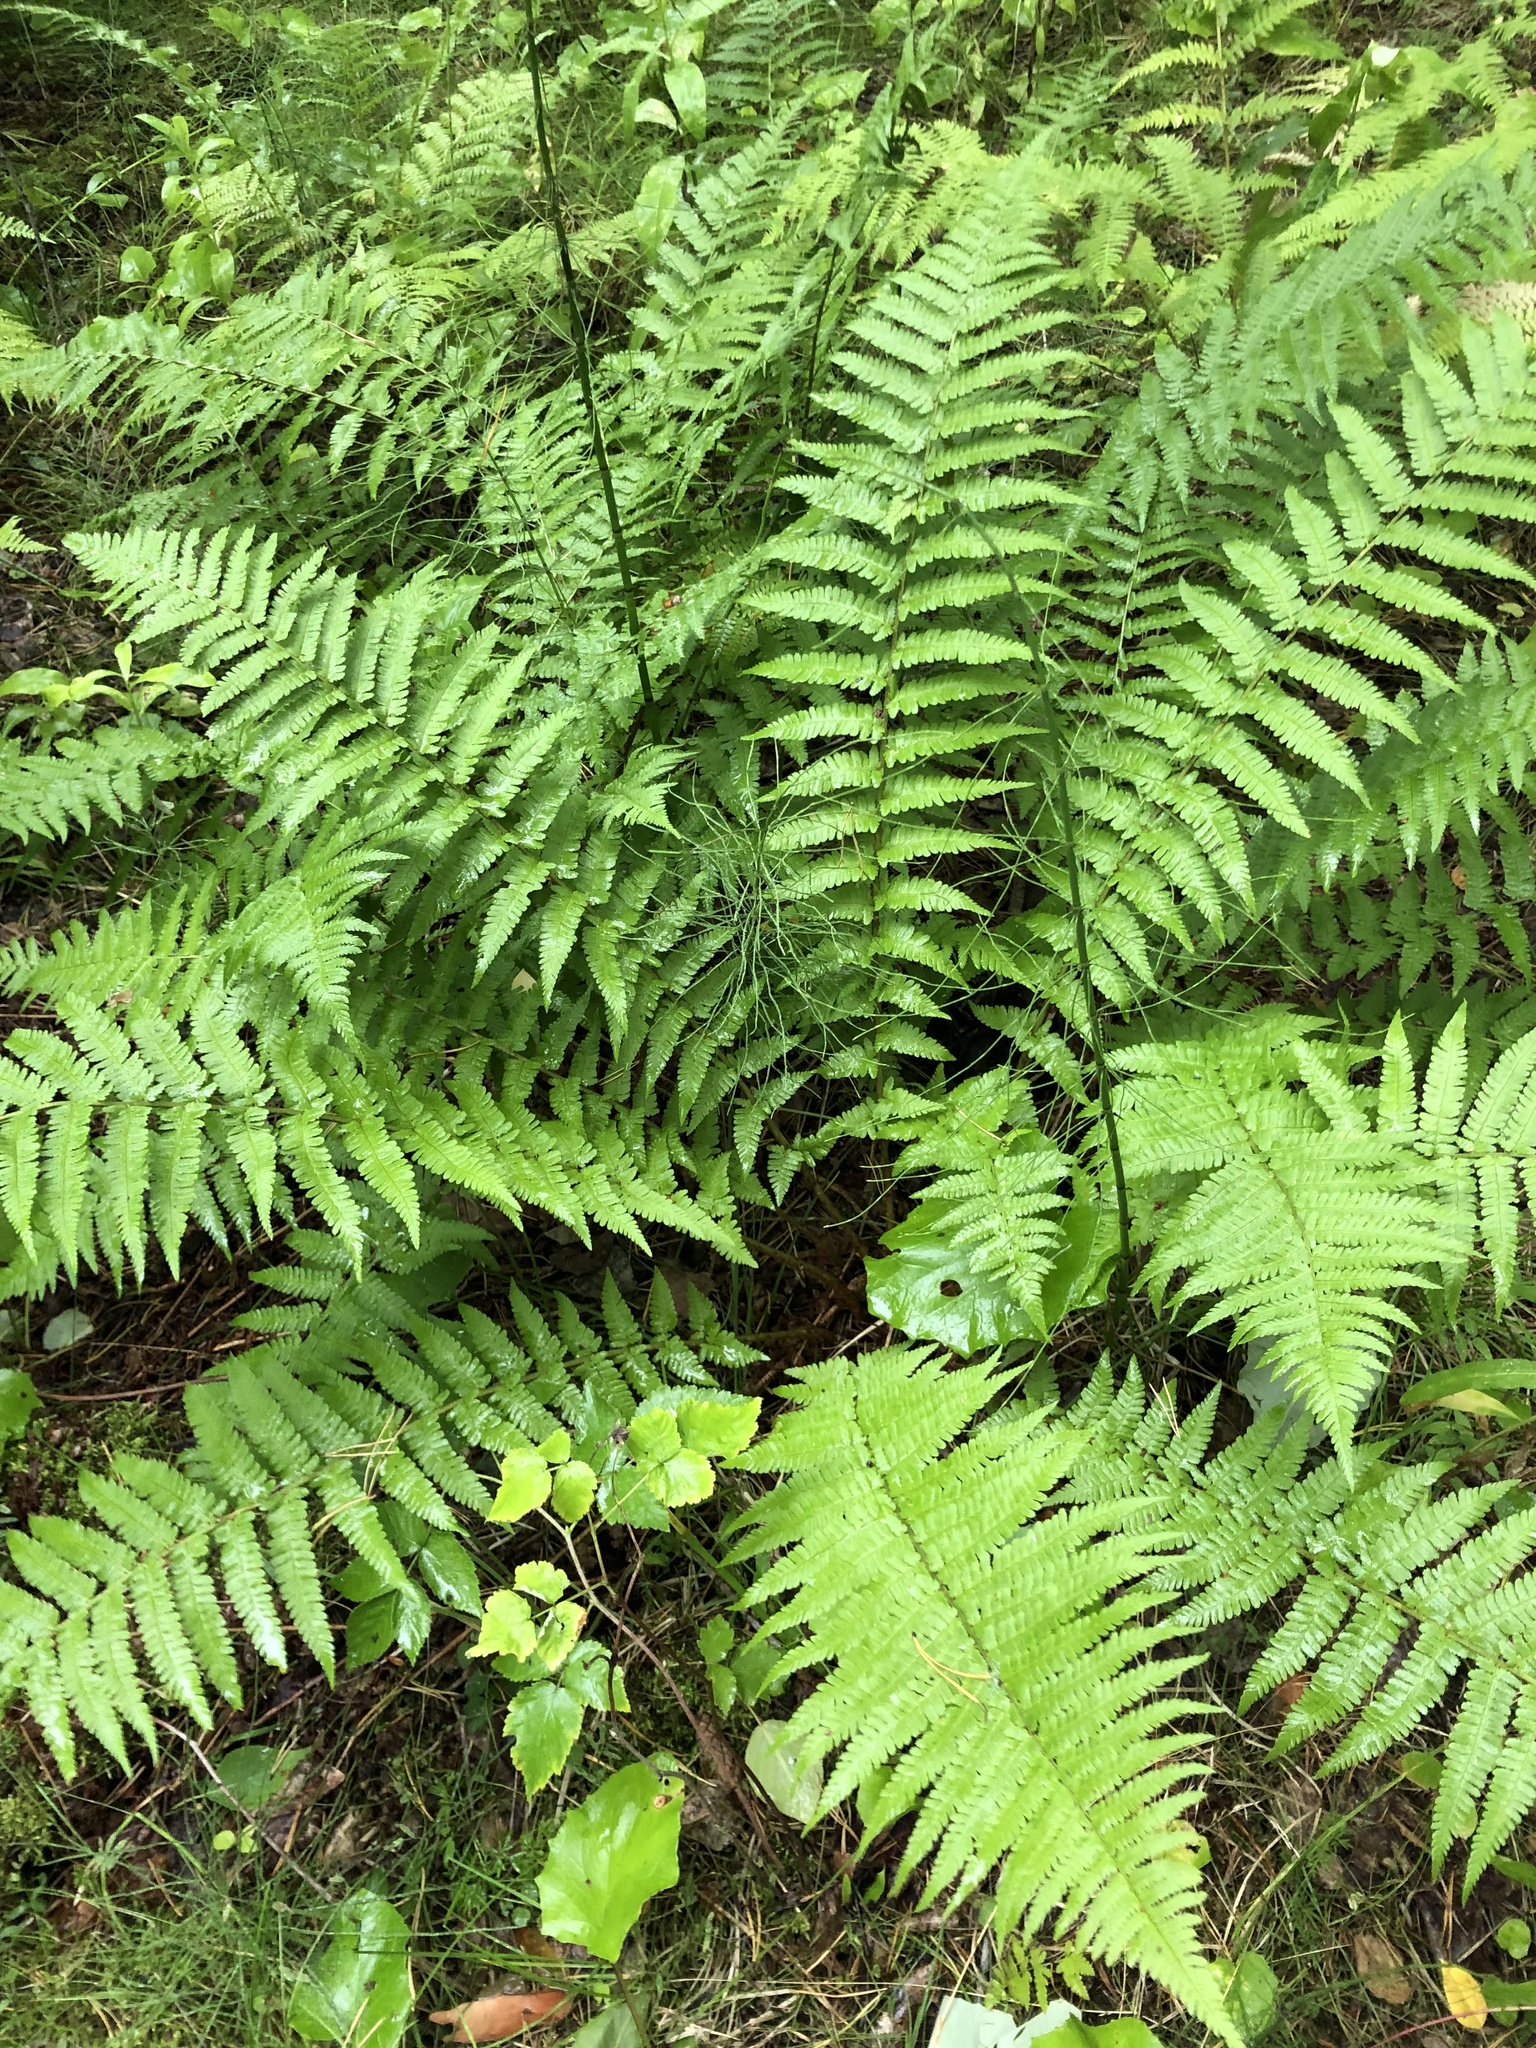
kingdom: Plantae
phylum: Tracheophyta
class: Polypodiopsida
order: Polypodiales
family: Dryopteridaceae
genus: Dryopteris
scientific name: Dryopteris filix-mas
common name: Male fern
